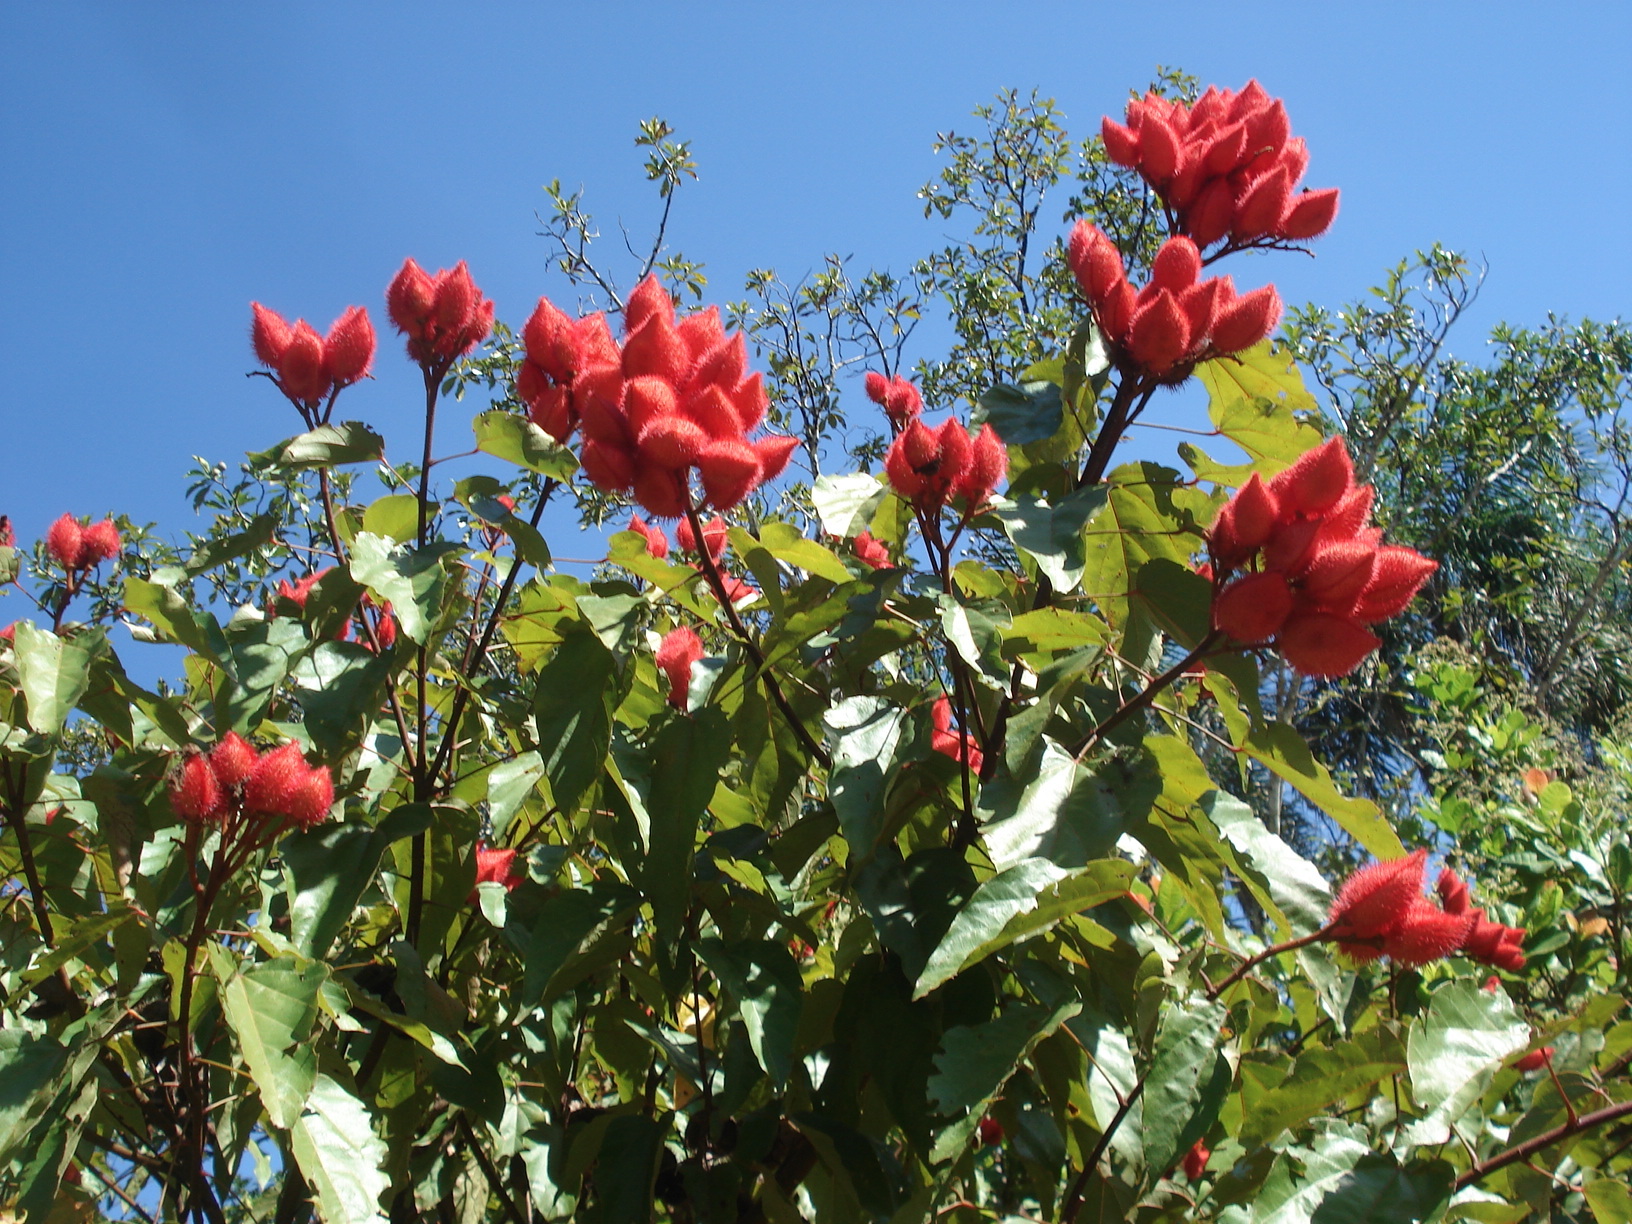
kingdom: Plantae
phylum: Tracheophyta
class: Magnoliopsida
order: Malvales
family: Bixaceae
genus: Bixa
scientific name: Bixa orellana
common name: Lipsticktree
